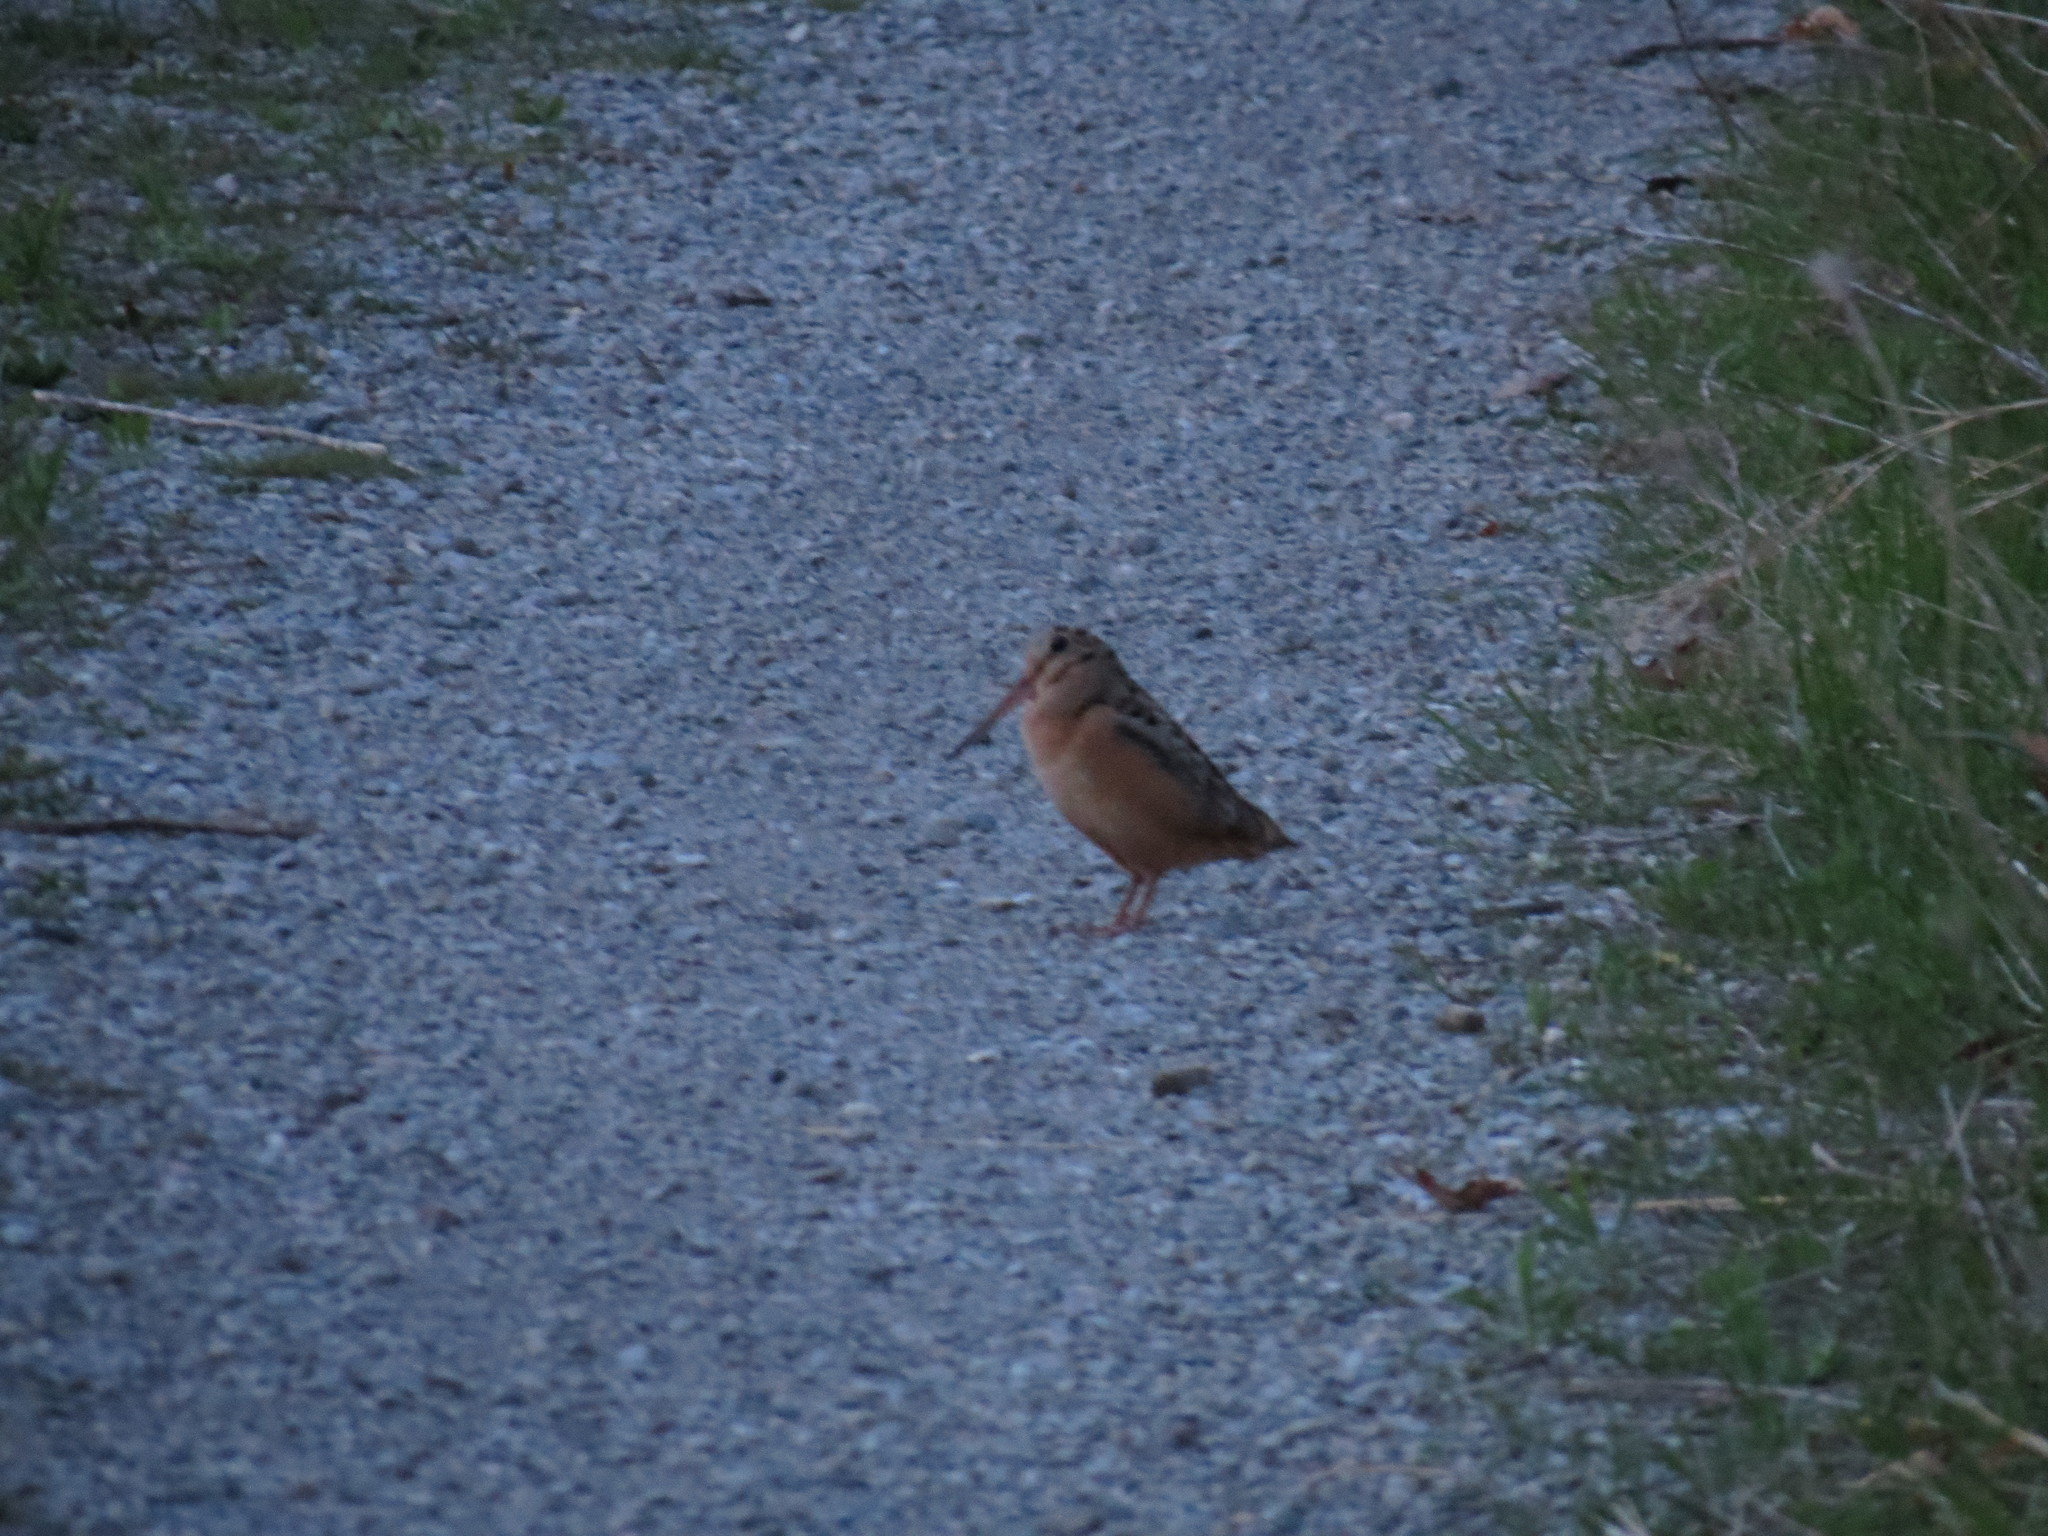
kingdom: Animalia
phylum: Chordata
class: Aves
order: Charadriiformes
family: Scolopacidae
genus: Scolopax
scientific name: Scolopax minor
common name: American woodcock
